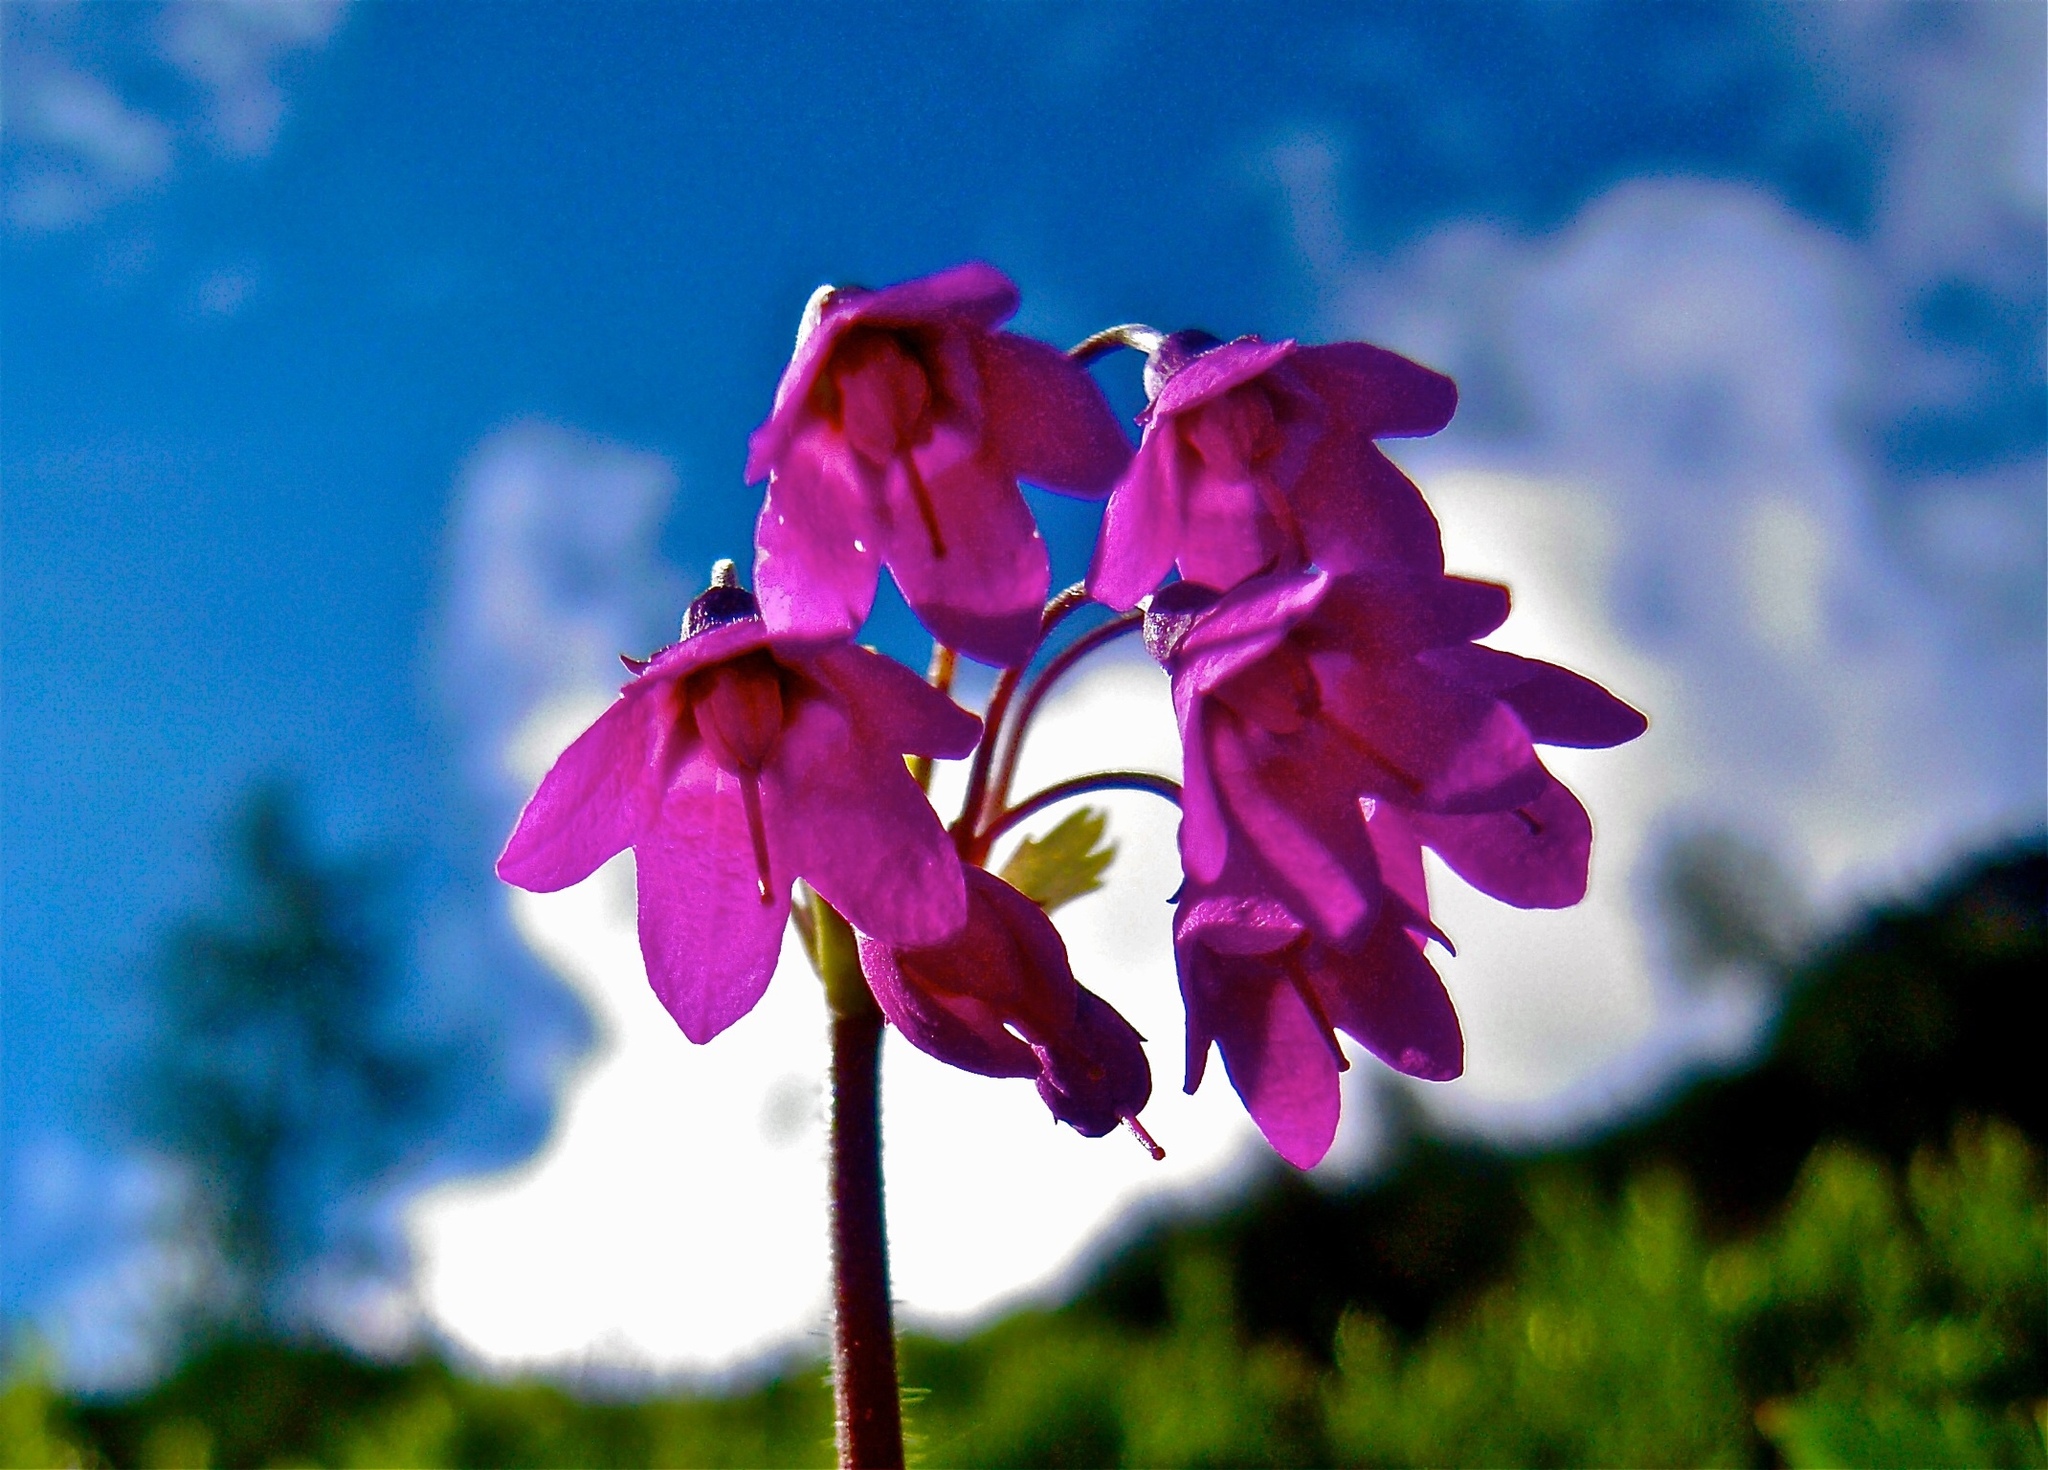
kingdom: Plantae
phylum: Tracheophyta
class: Magnoliopsida
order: Ericales
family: Primulaceae
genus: Primula
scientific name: Primula matthioli
